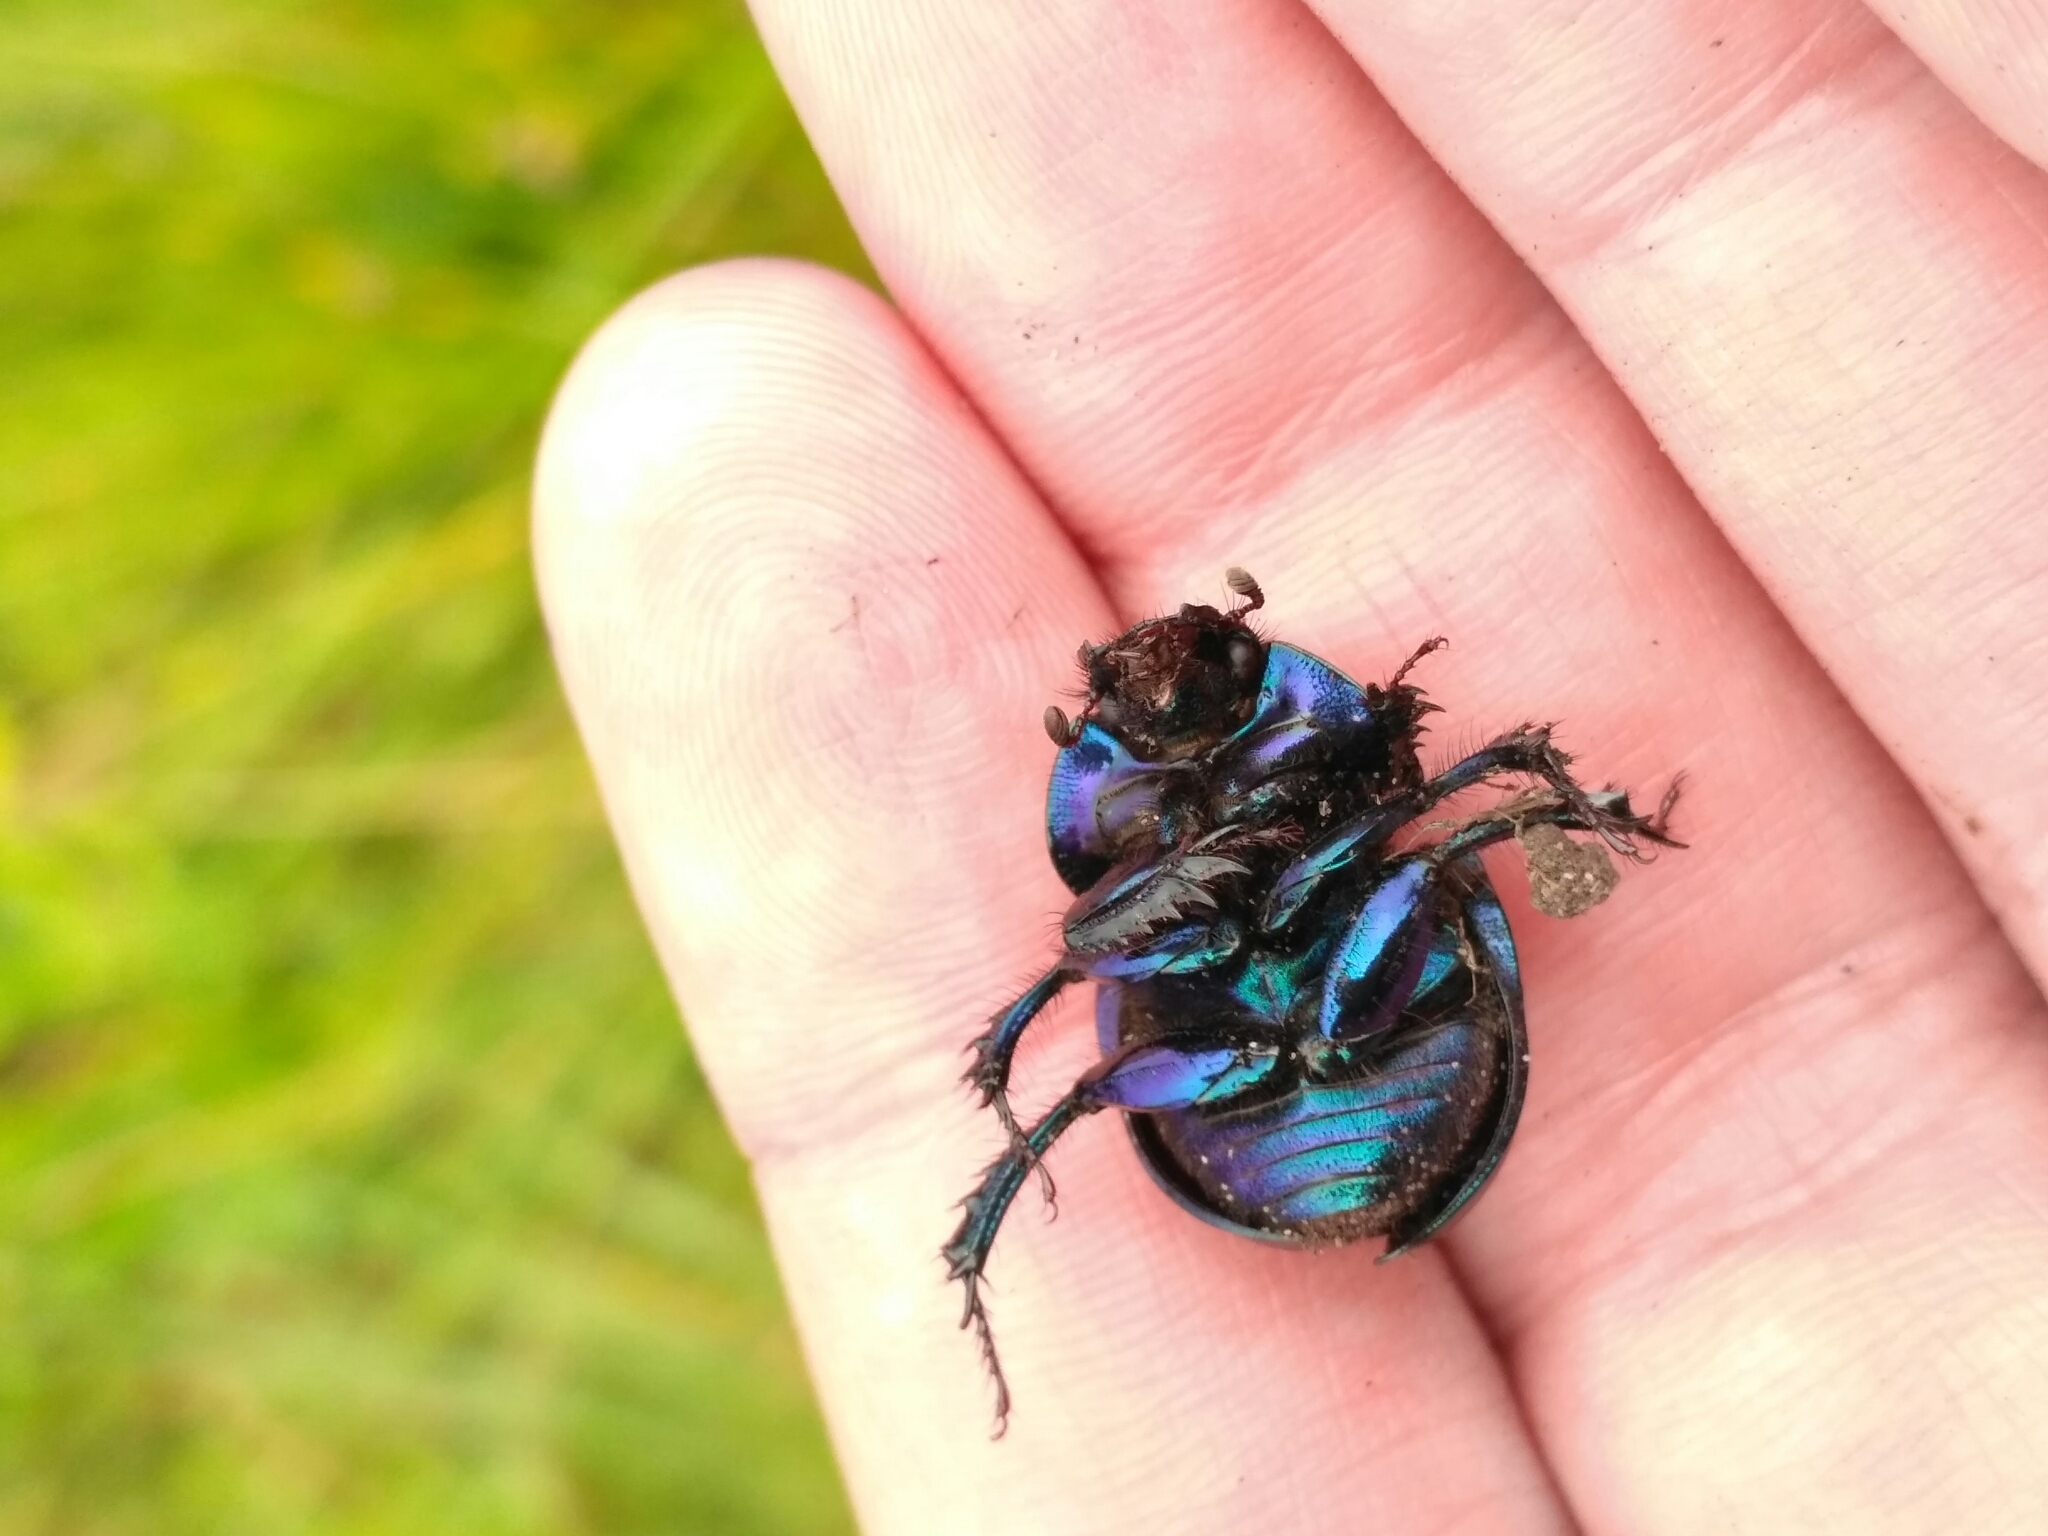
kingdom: Animalia
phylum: Arthropoda
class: Insecta
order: Coleoptera
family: Geotrupidae
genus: Anoplotrupes
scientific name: Anoplotrupes stercorosus
